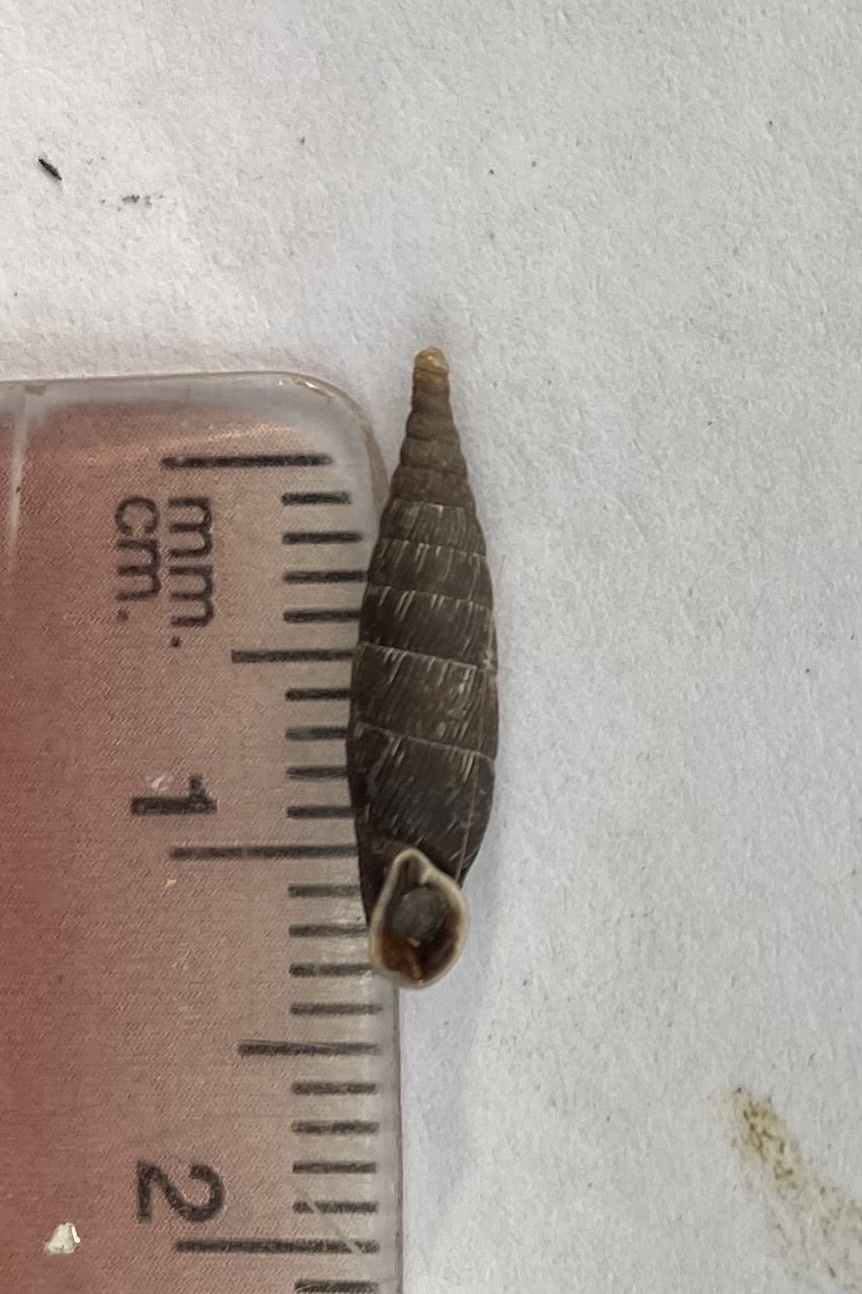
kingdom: Animalia
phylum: Mollusca
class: Gastropoda
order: Stylommatophora
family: Clausiliidae
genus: Scrobifera
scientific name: Scrobifera taurica
